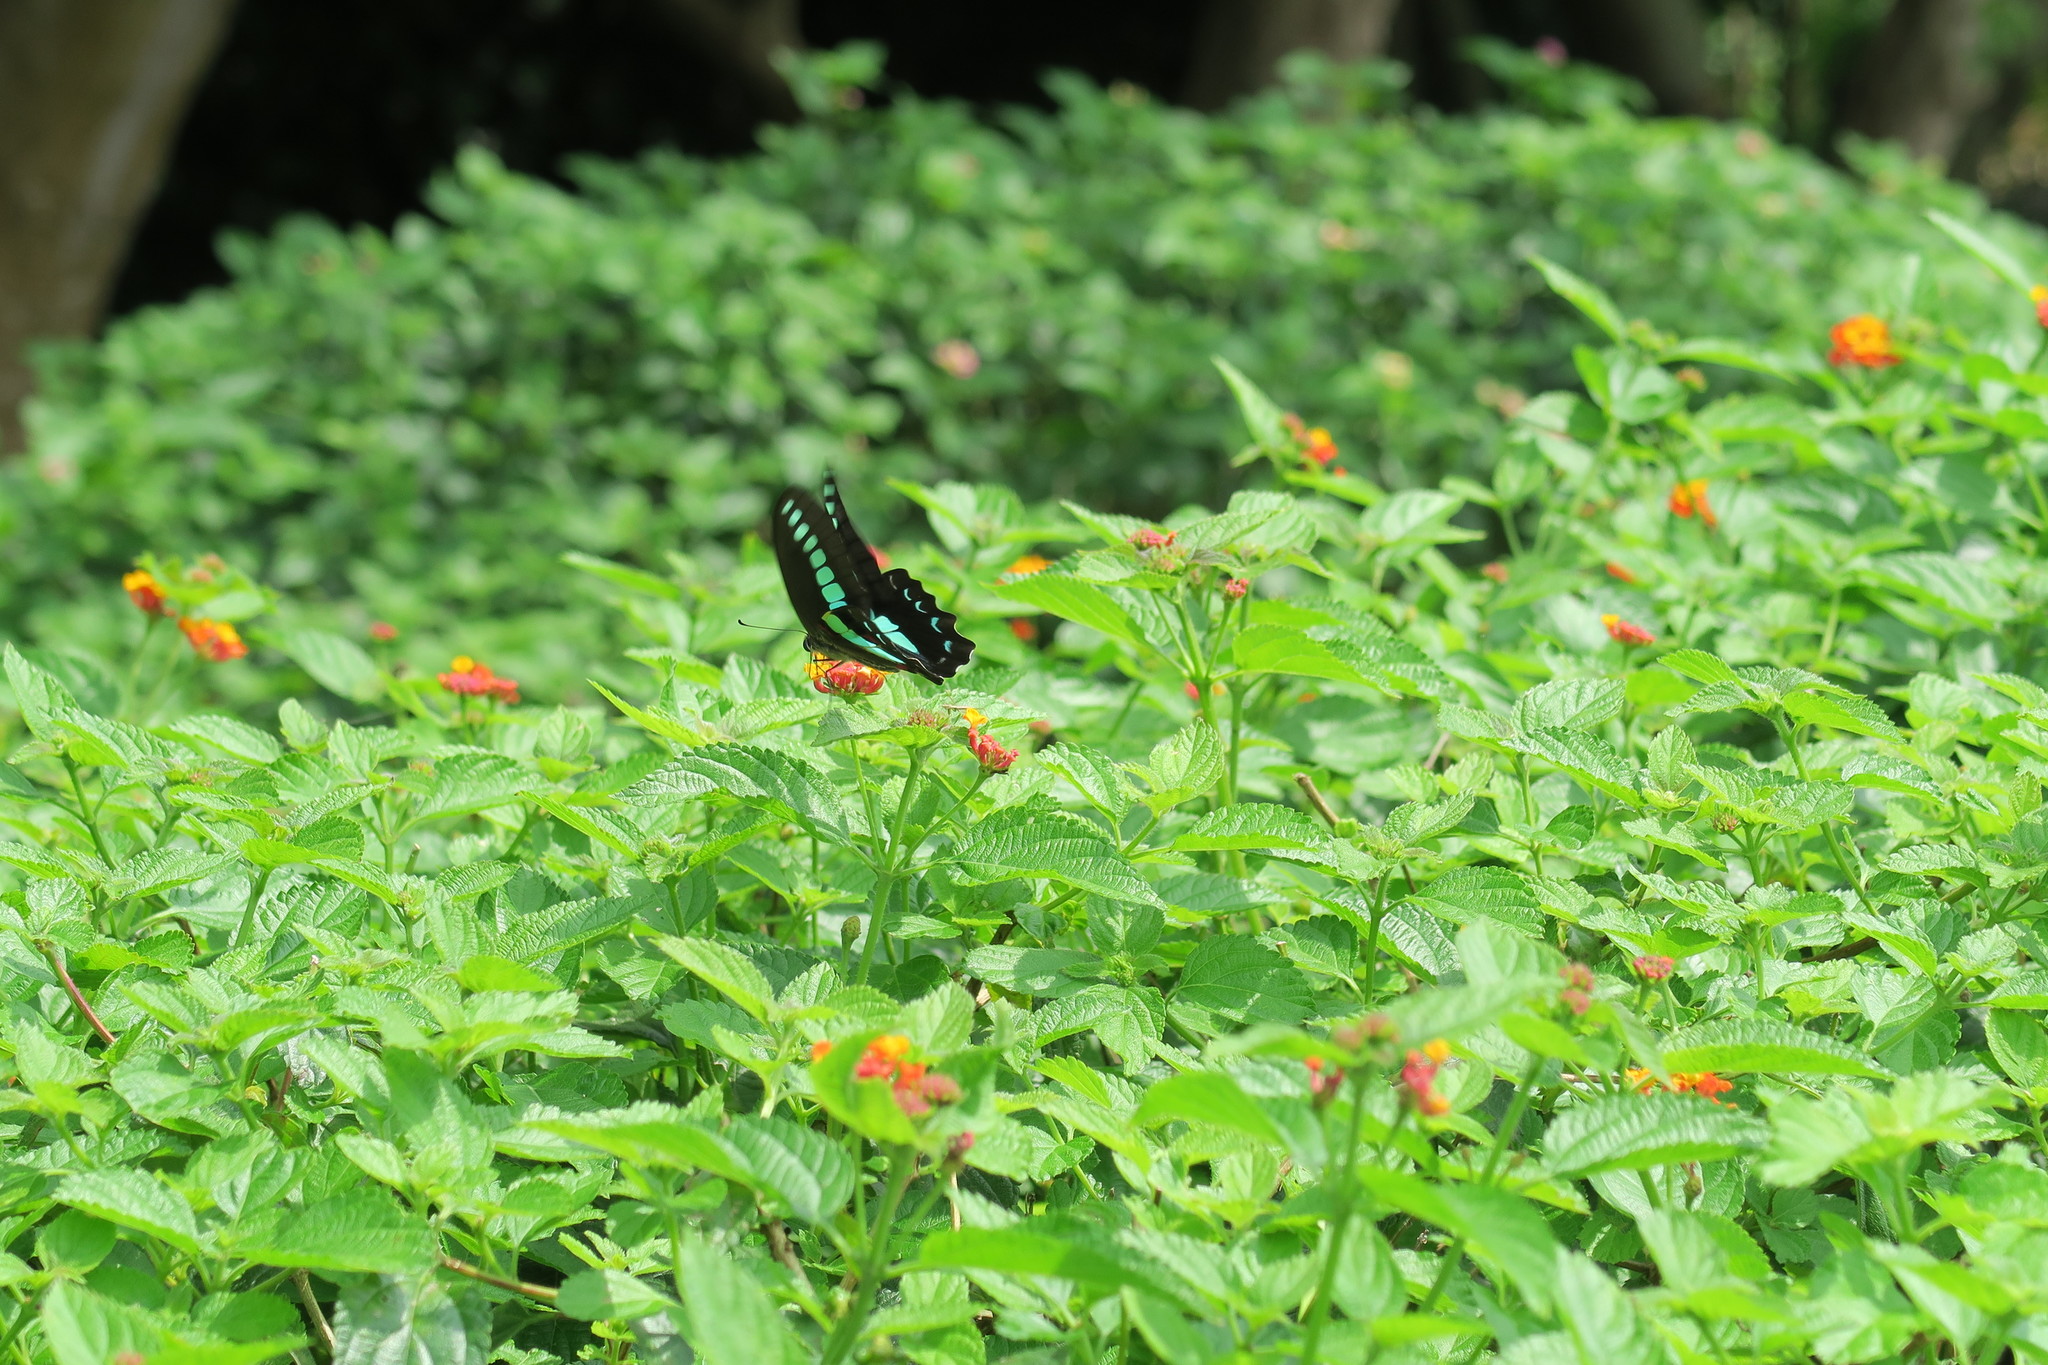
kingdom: Fungi
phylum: Ascomycota
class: Sordariomycetes
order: Microascales
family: Microascaceae
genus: Graphium
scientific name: Graphium sarpedon
